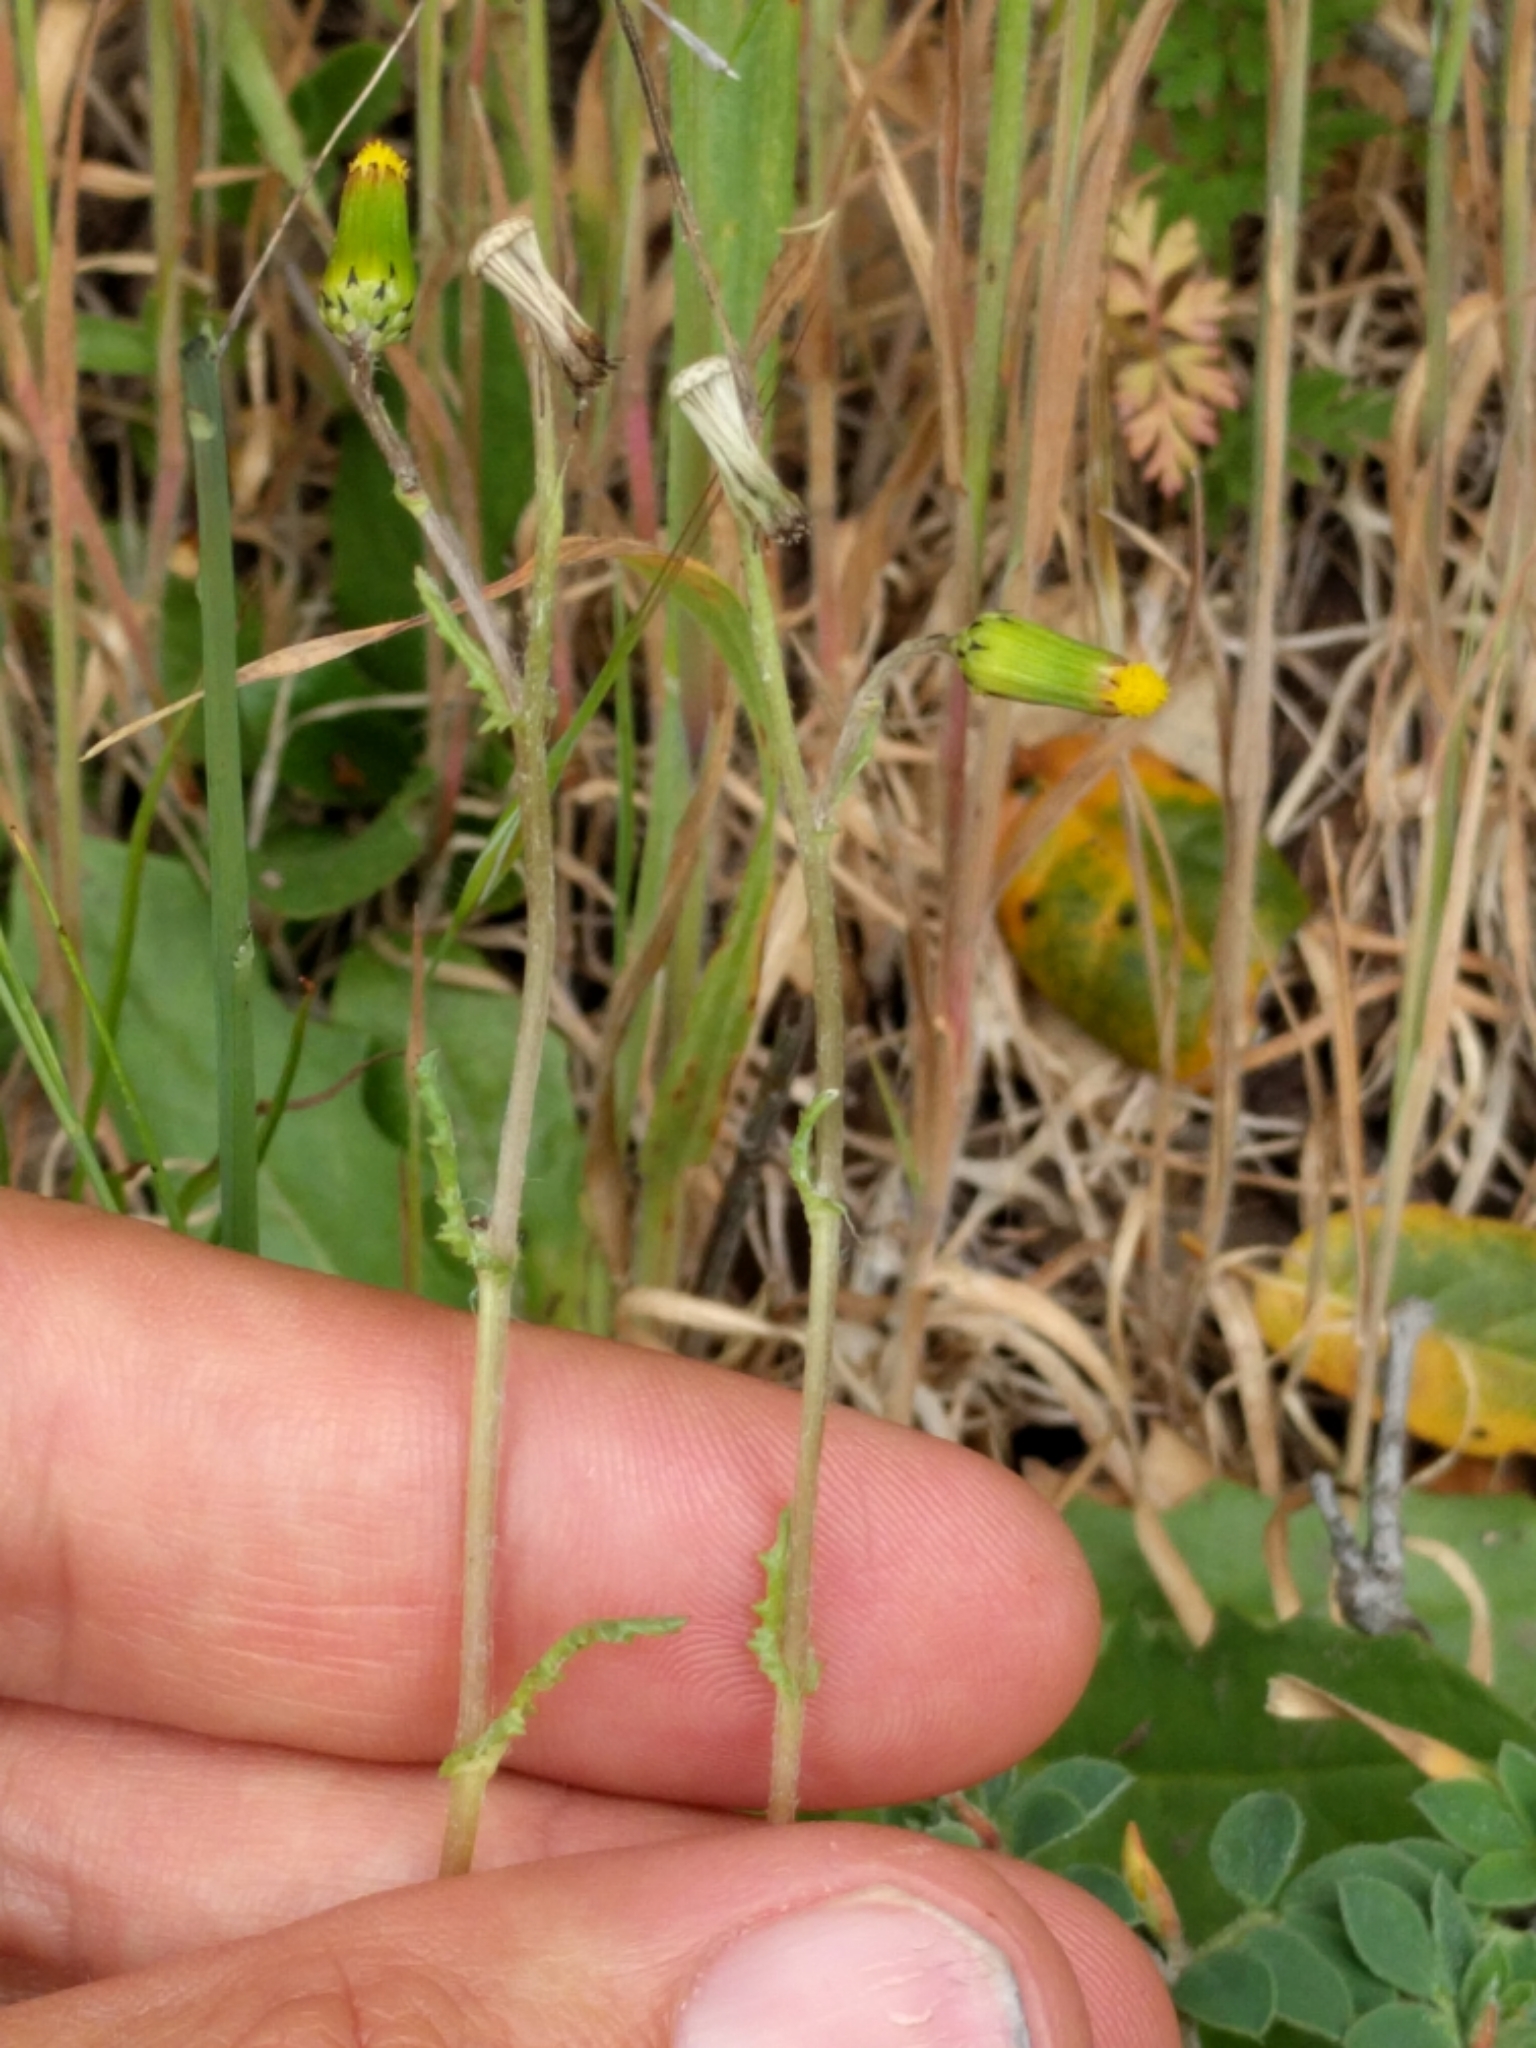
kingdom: Plantae
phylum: Tracheophyta
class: Magnoliopsida
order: Asterales
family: Asteraceae
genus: Senecio
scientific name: Senecio vulgaris
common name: Old-man-in-the-spring
